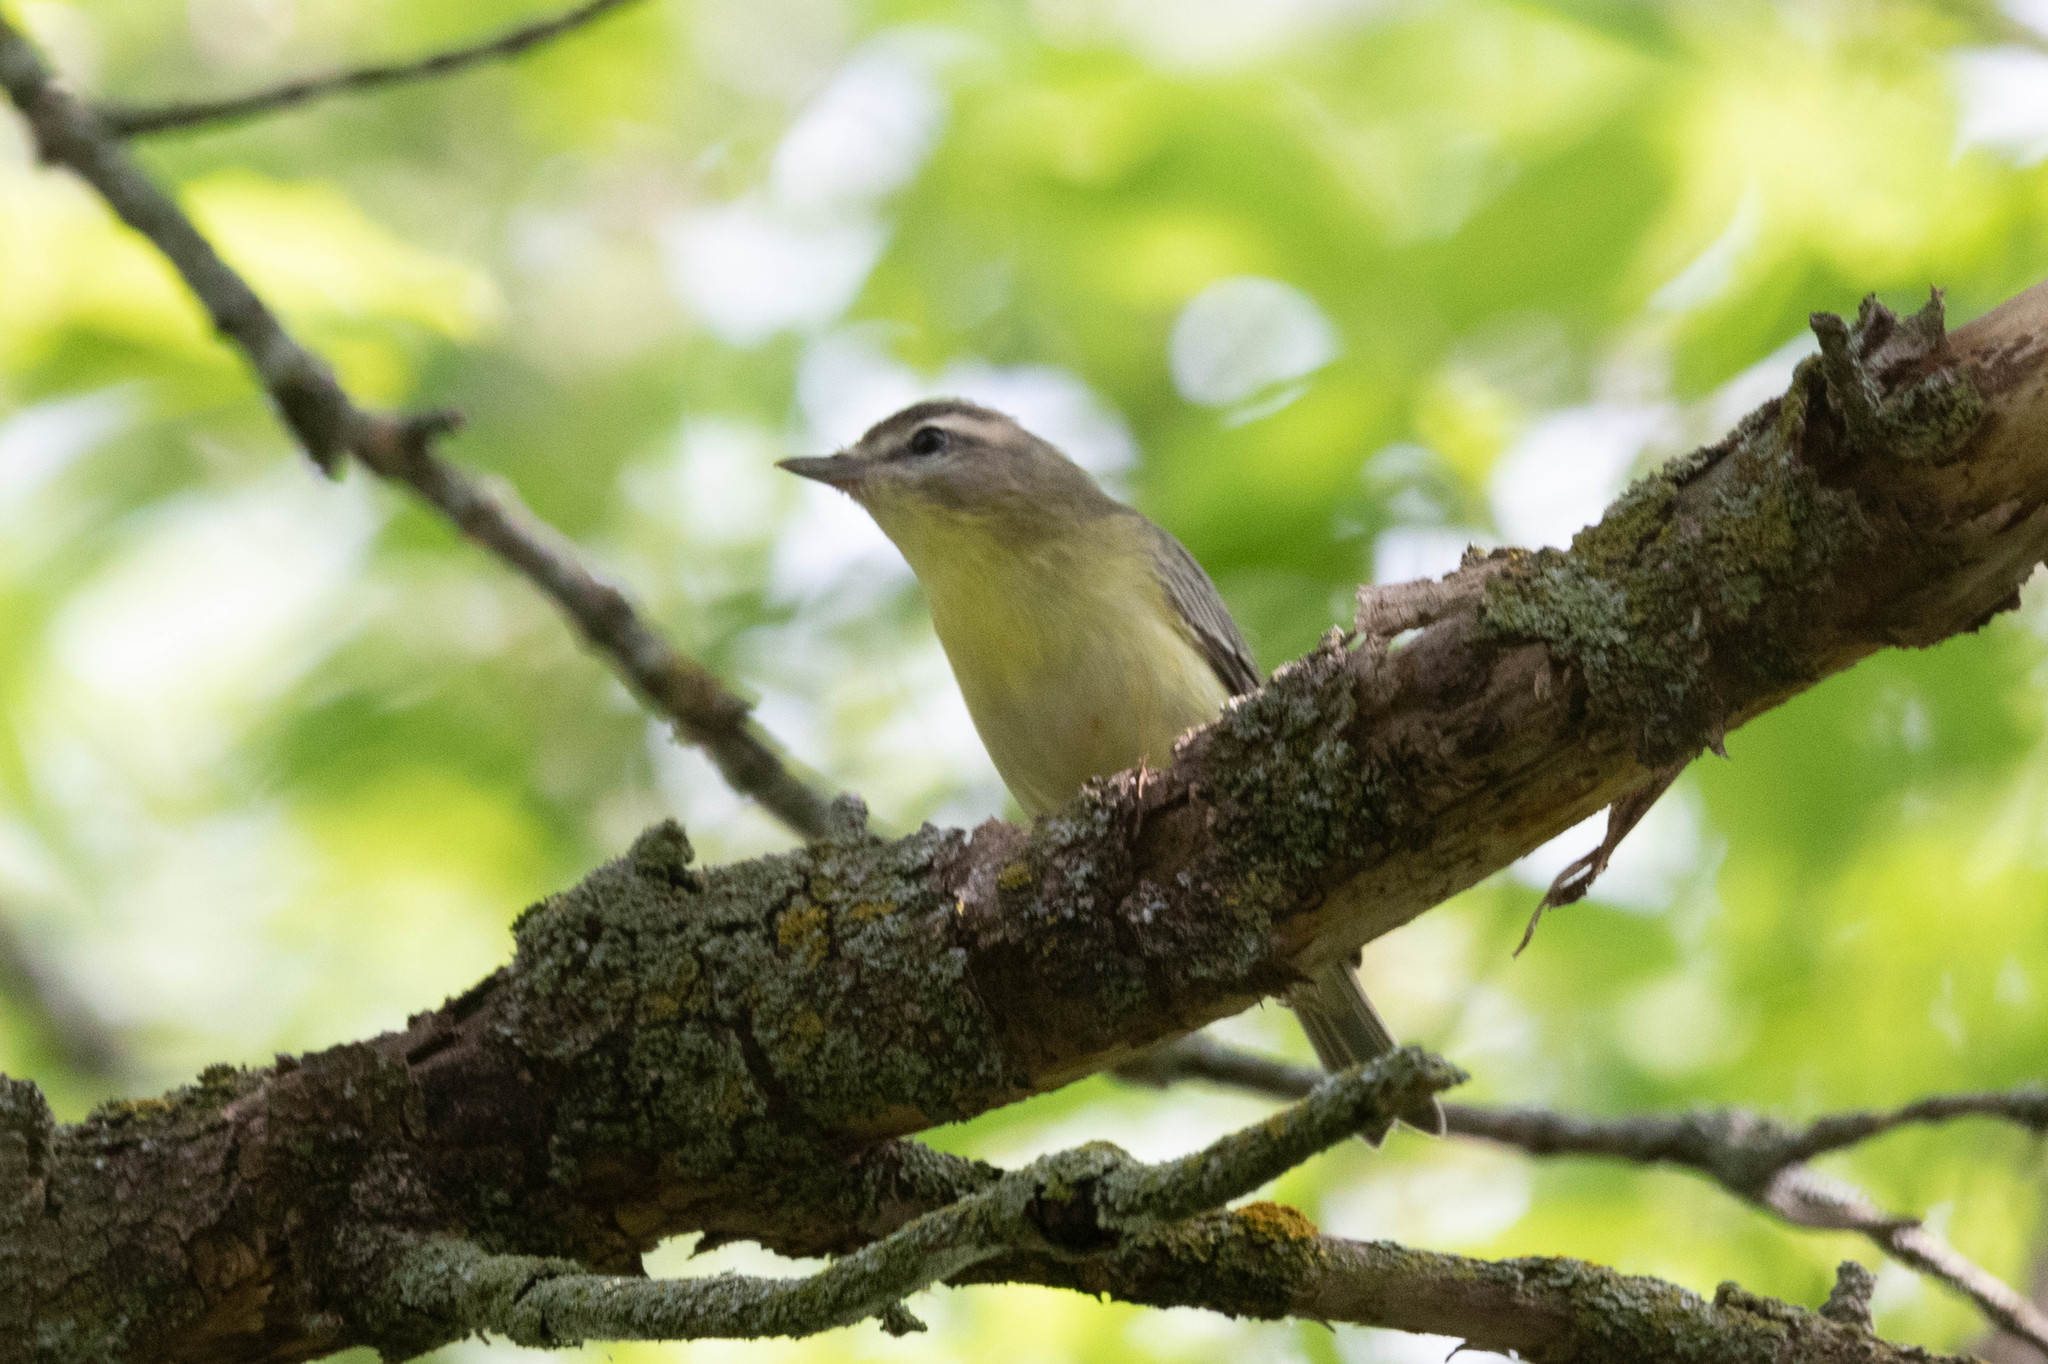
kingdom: Animalia
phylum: Chordata
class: Aves
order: Passeriformes
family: Vireonidae
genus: Vireo
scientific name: Vireo philadelphicus
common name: Philadelphia vireo
